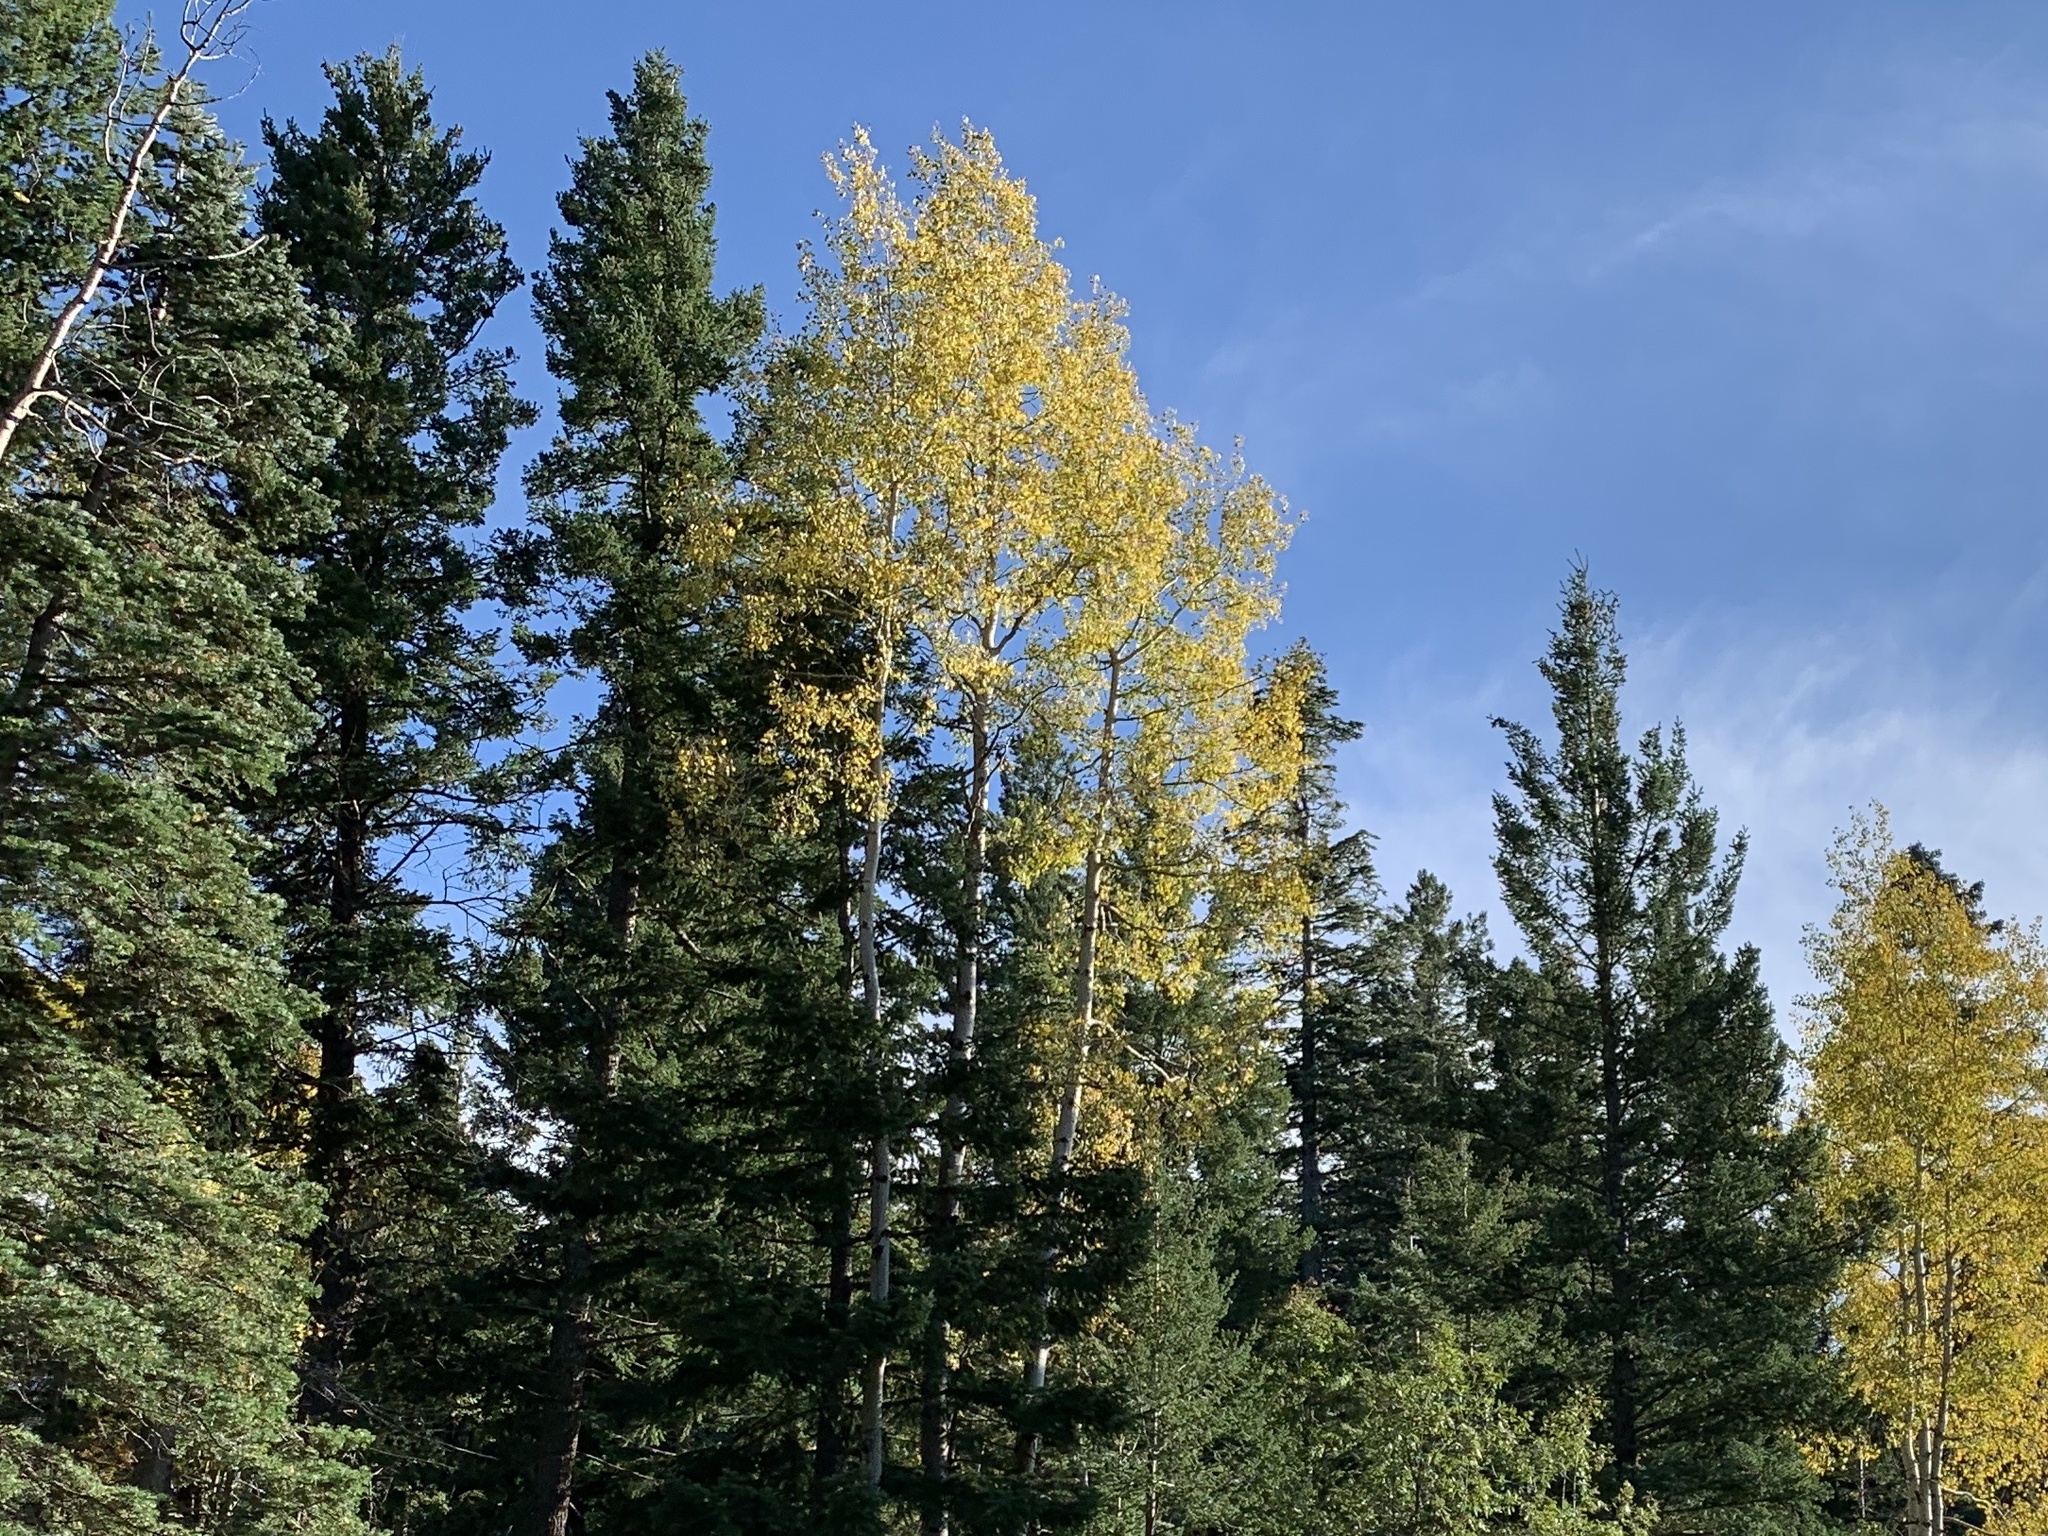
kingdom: Plantae
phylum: Tracheophyta
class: Magnoliopsida
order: Malpighiales
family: Salicaceae
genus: Populus
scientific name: Populus tremuloides
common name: Quaking aspen
